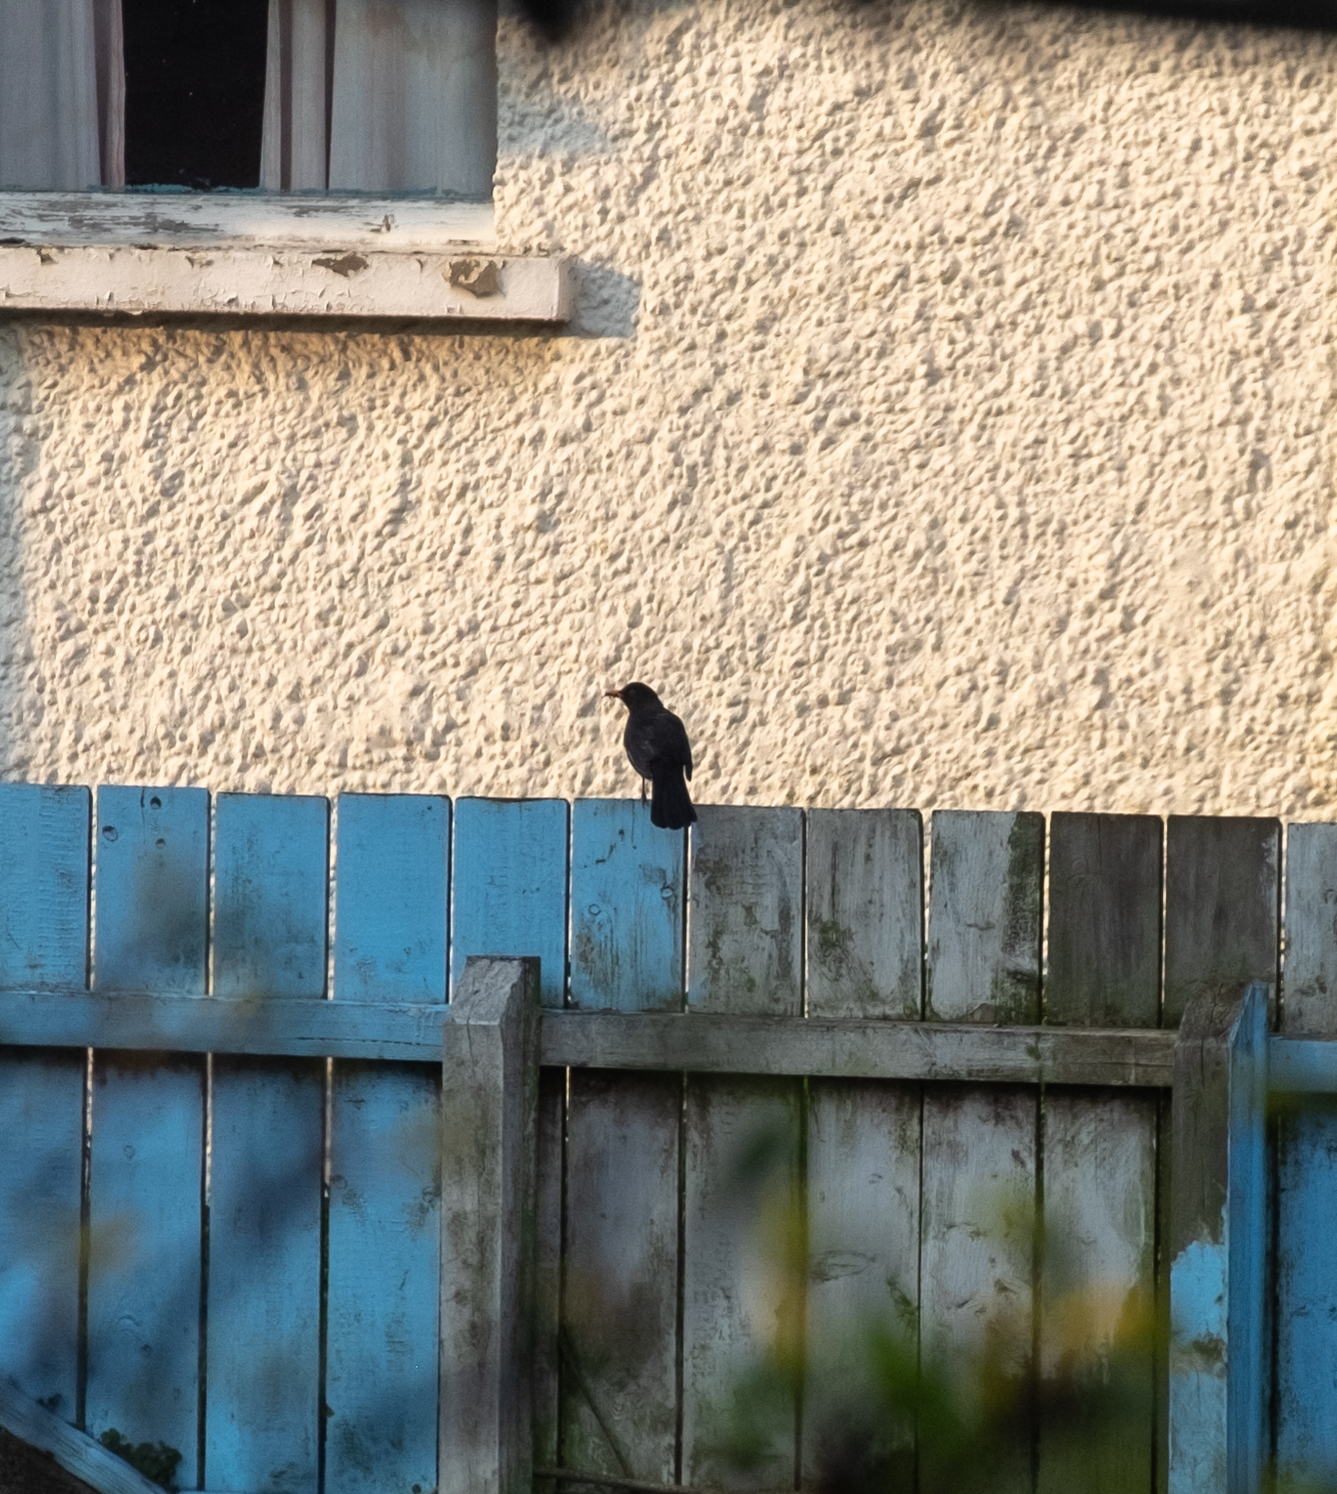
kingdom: Animalia
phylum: Chordata
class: Aves
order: Passeriformes
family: Turdidae
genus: Turdus
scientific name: Turdus merula
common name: Common blackbird
